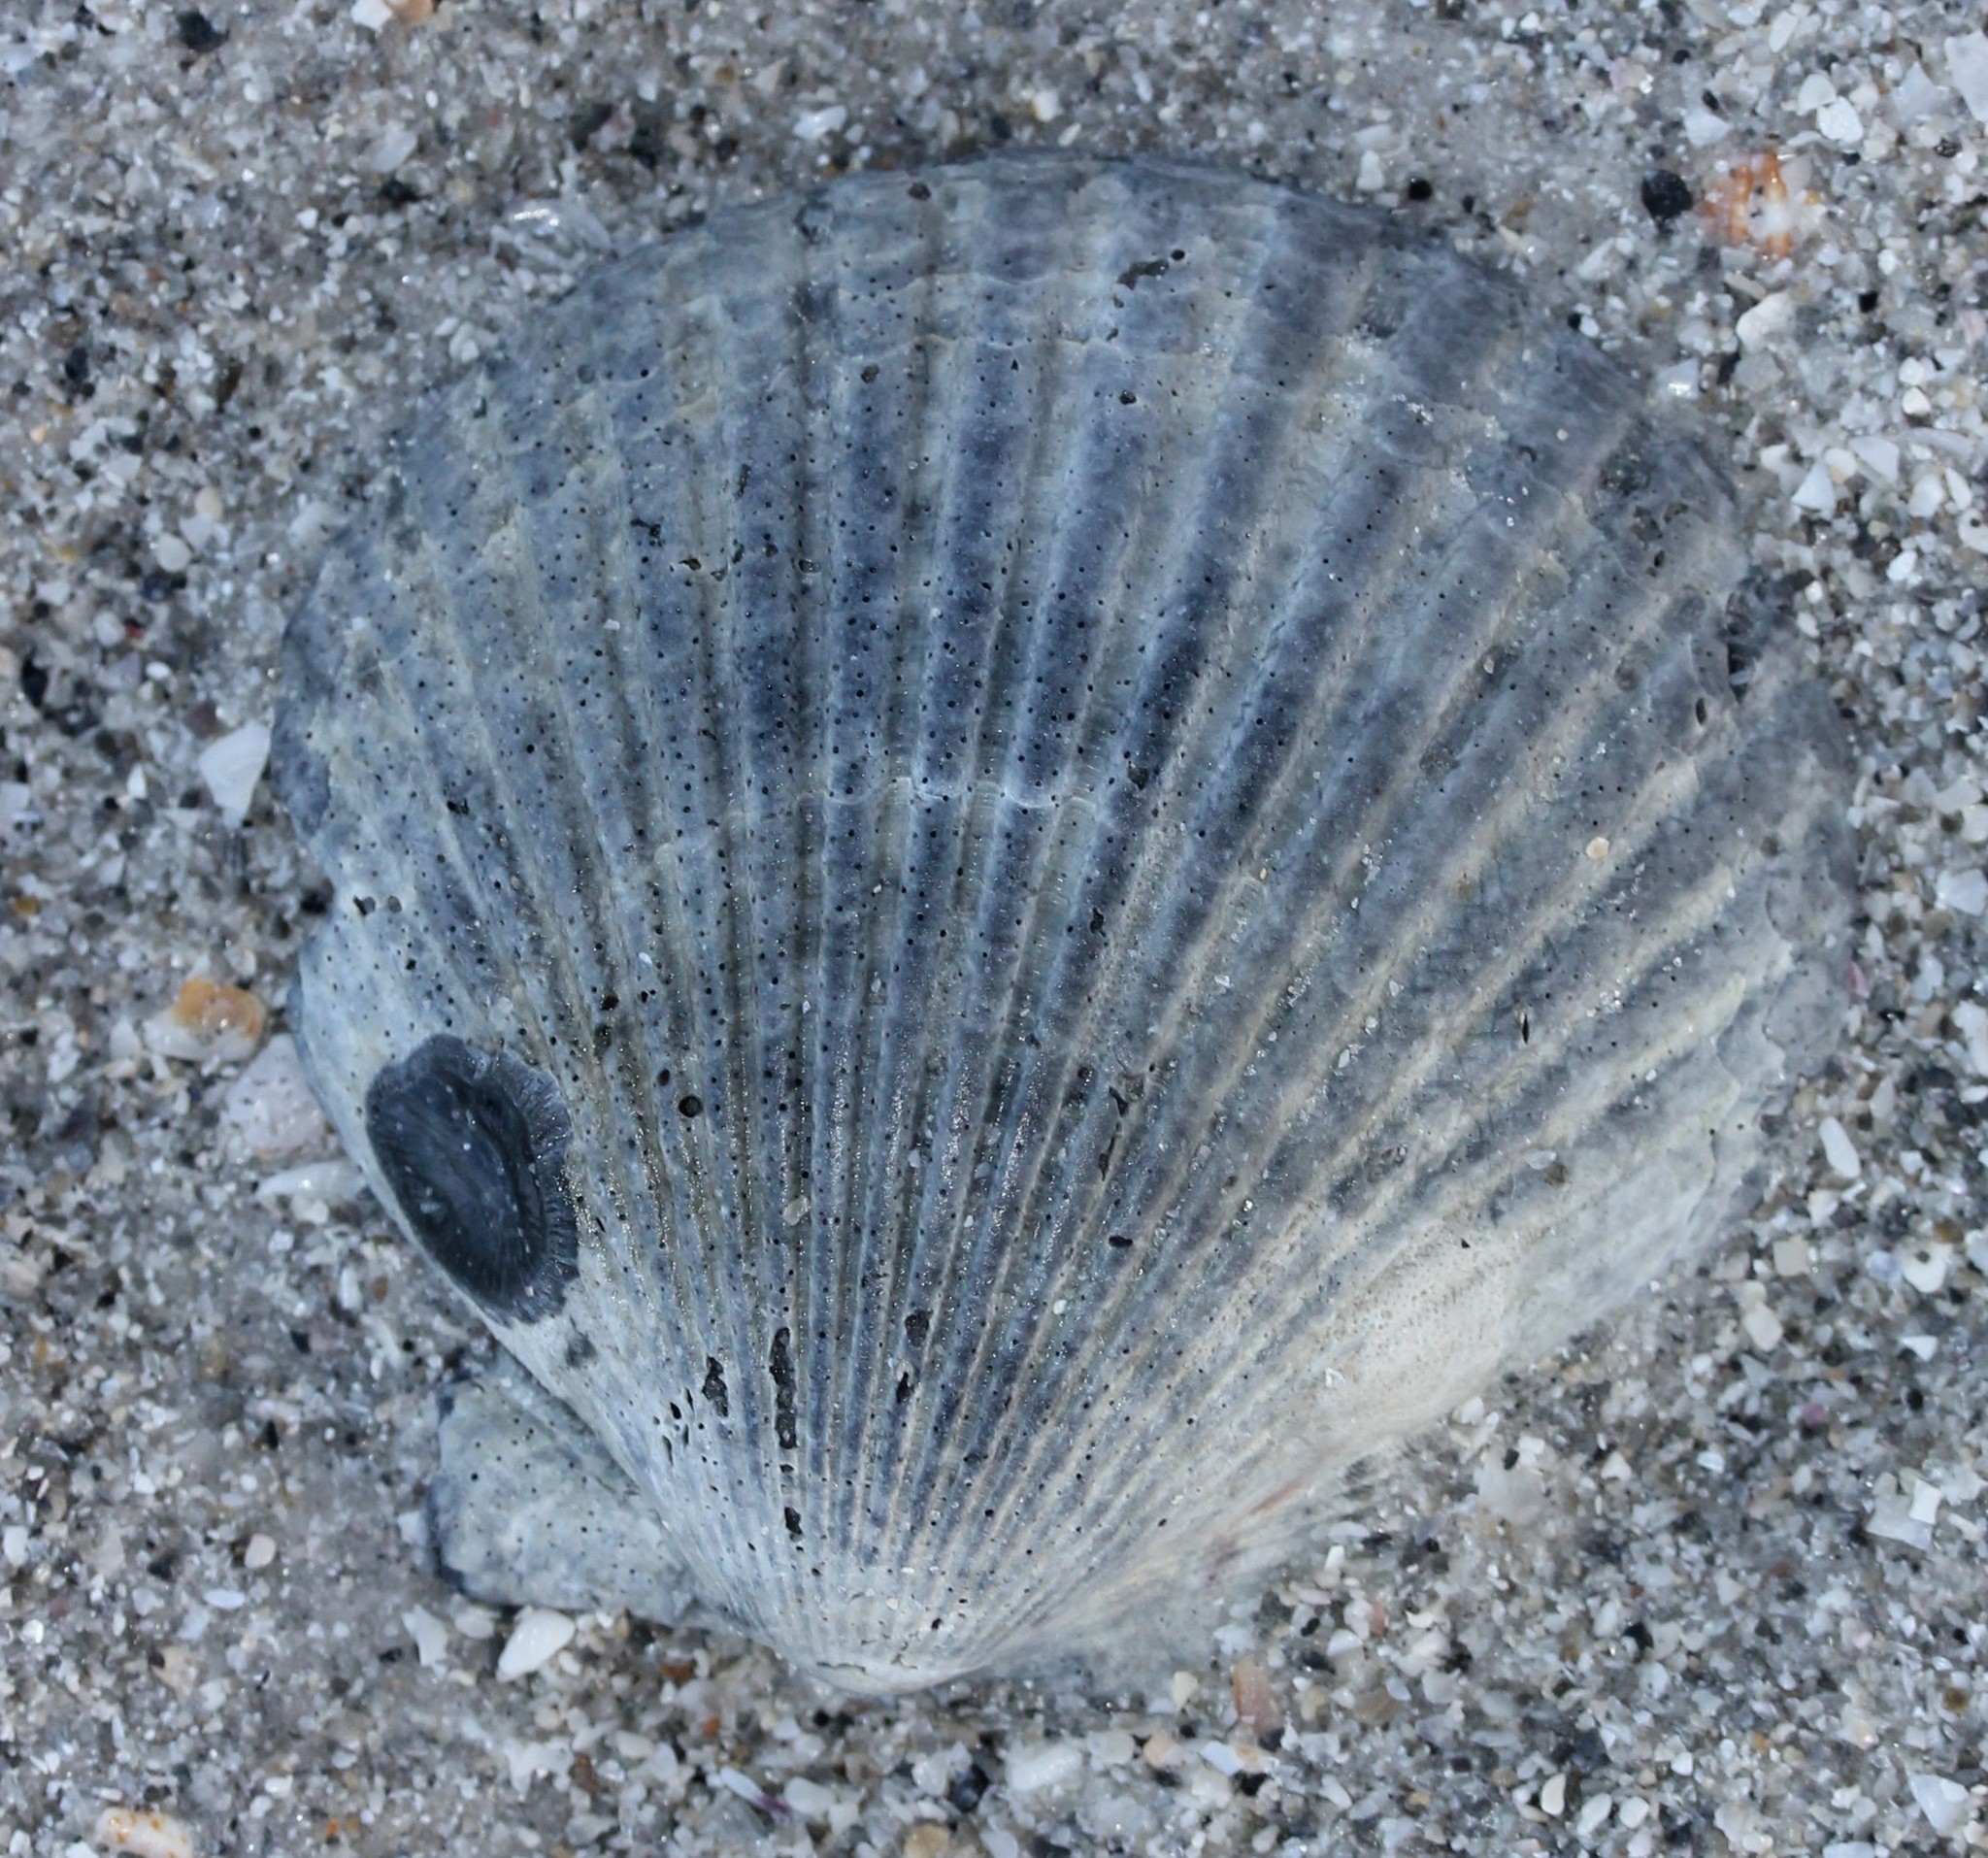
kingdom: Animalia
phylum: Mollusca
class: Bivalvia
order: Pectinida
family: Pectinidae
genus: Argopecten
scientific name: Argopecten irradians
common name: Atlantic bay scallop
